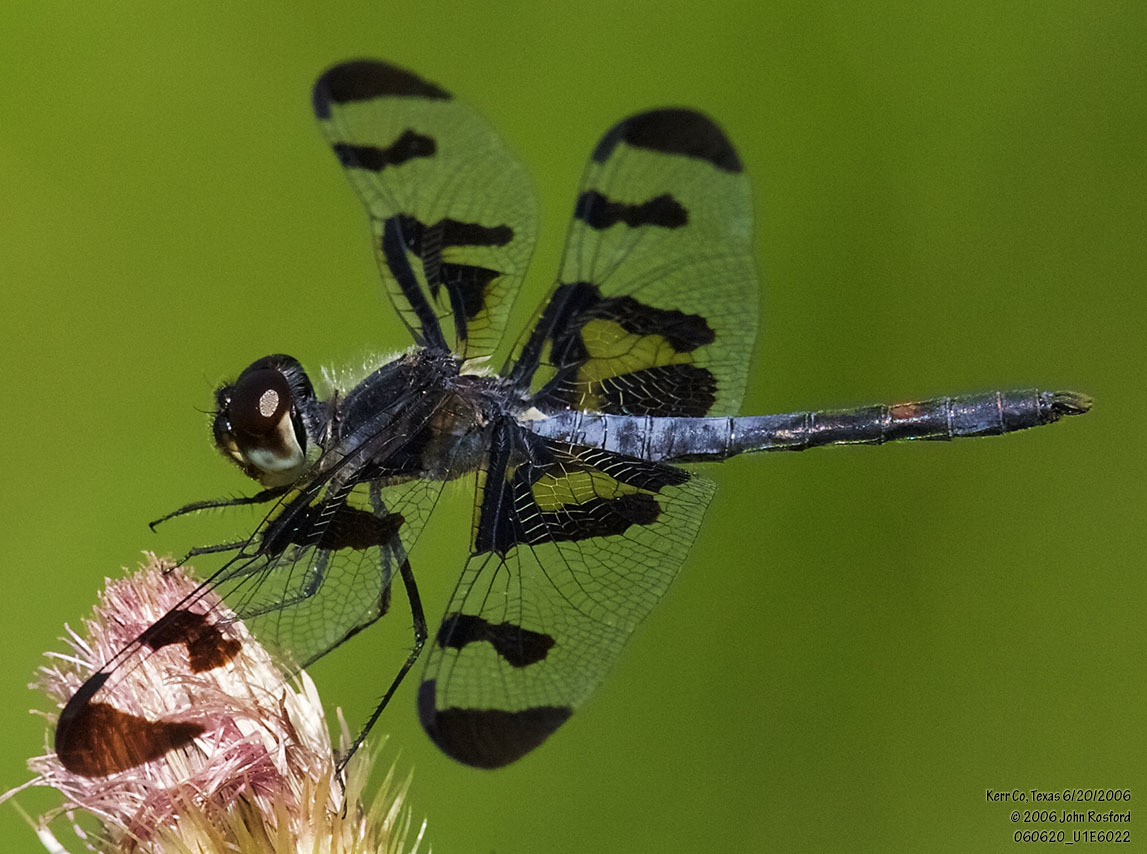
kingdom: Animalia
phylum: Arthropoda
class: Insecta
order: Odonata
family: Libellulidae
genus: Celithemis
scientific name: Celithemis fasciata
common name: Banded pennant
